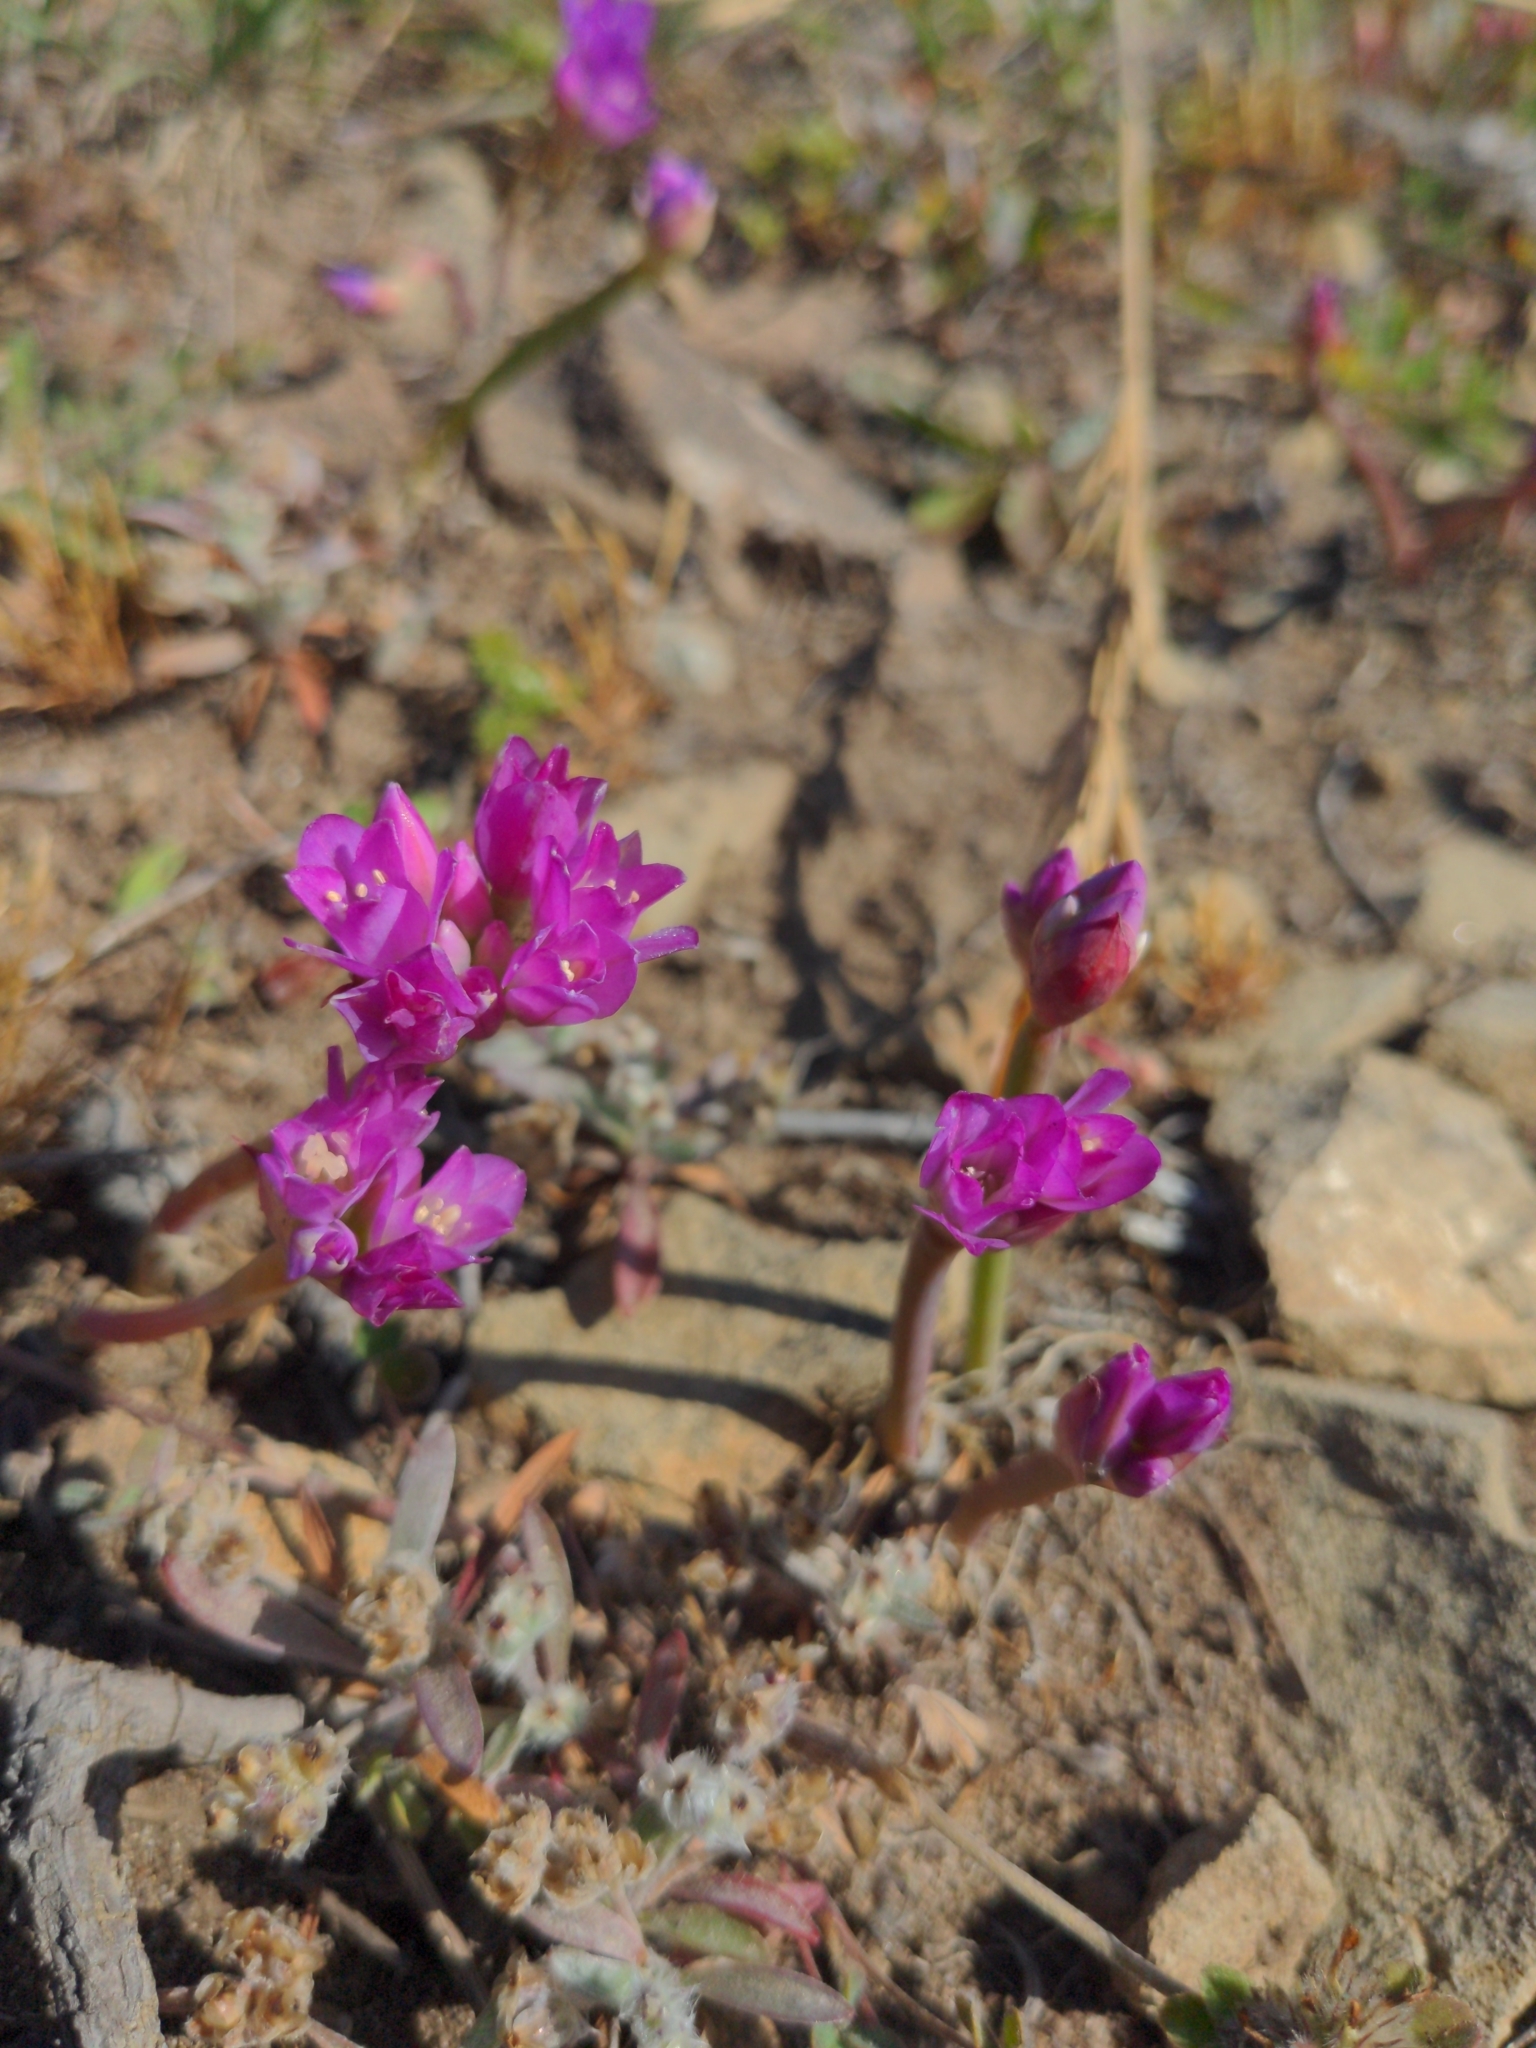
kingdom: Plantae
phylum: Tracheophyta
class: Liliopsida
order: Asparagales
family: Amaryllidaceae
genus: Allium
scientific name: Allium dichlamydeum
